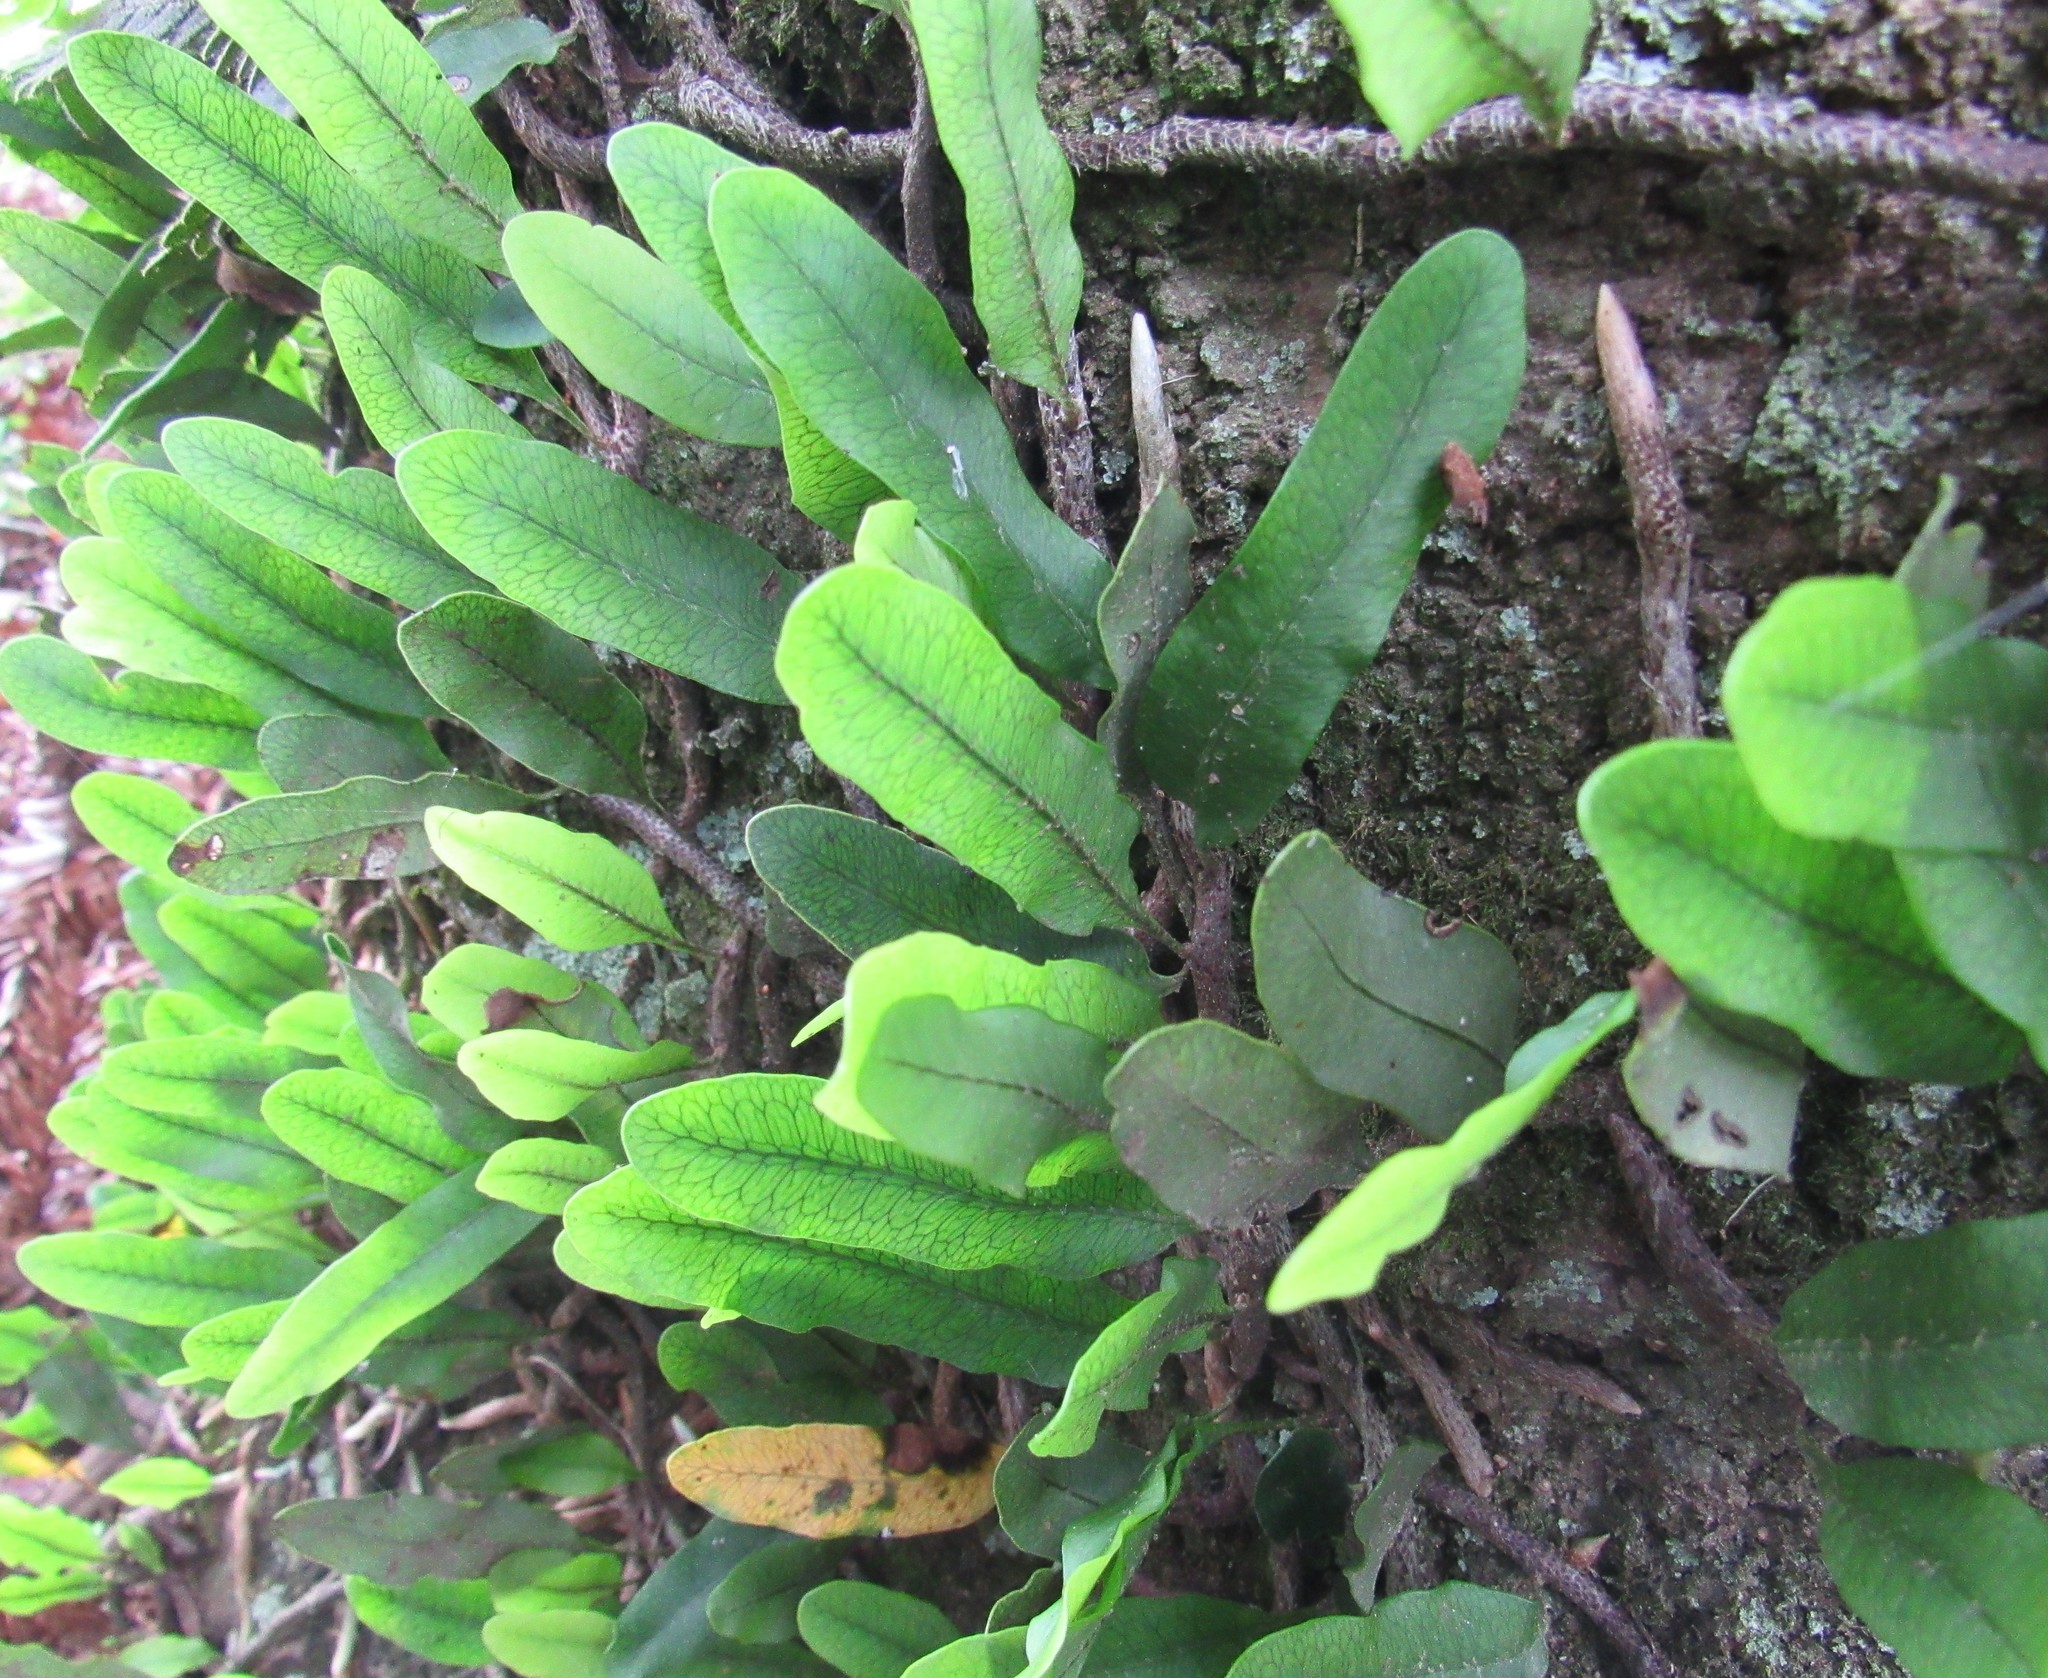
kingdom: Plantae
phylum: Tracheophyta
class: Polypodiopsida
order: Polypodiales
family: Polypodiaceae
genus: Microgramma
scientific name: Microgramma squamulosa
